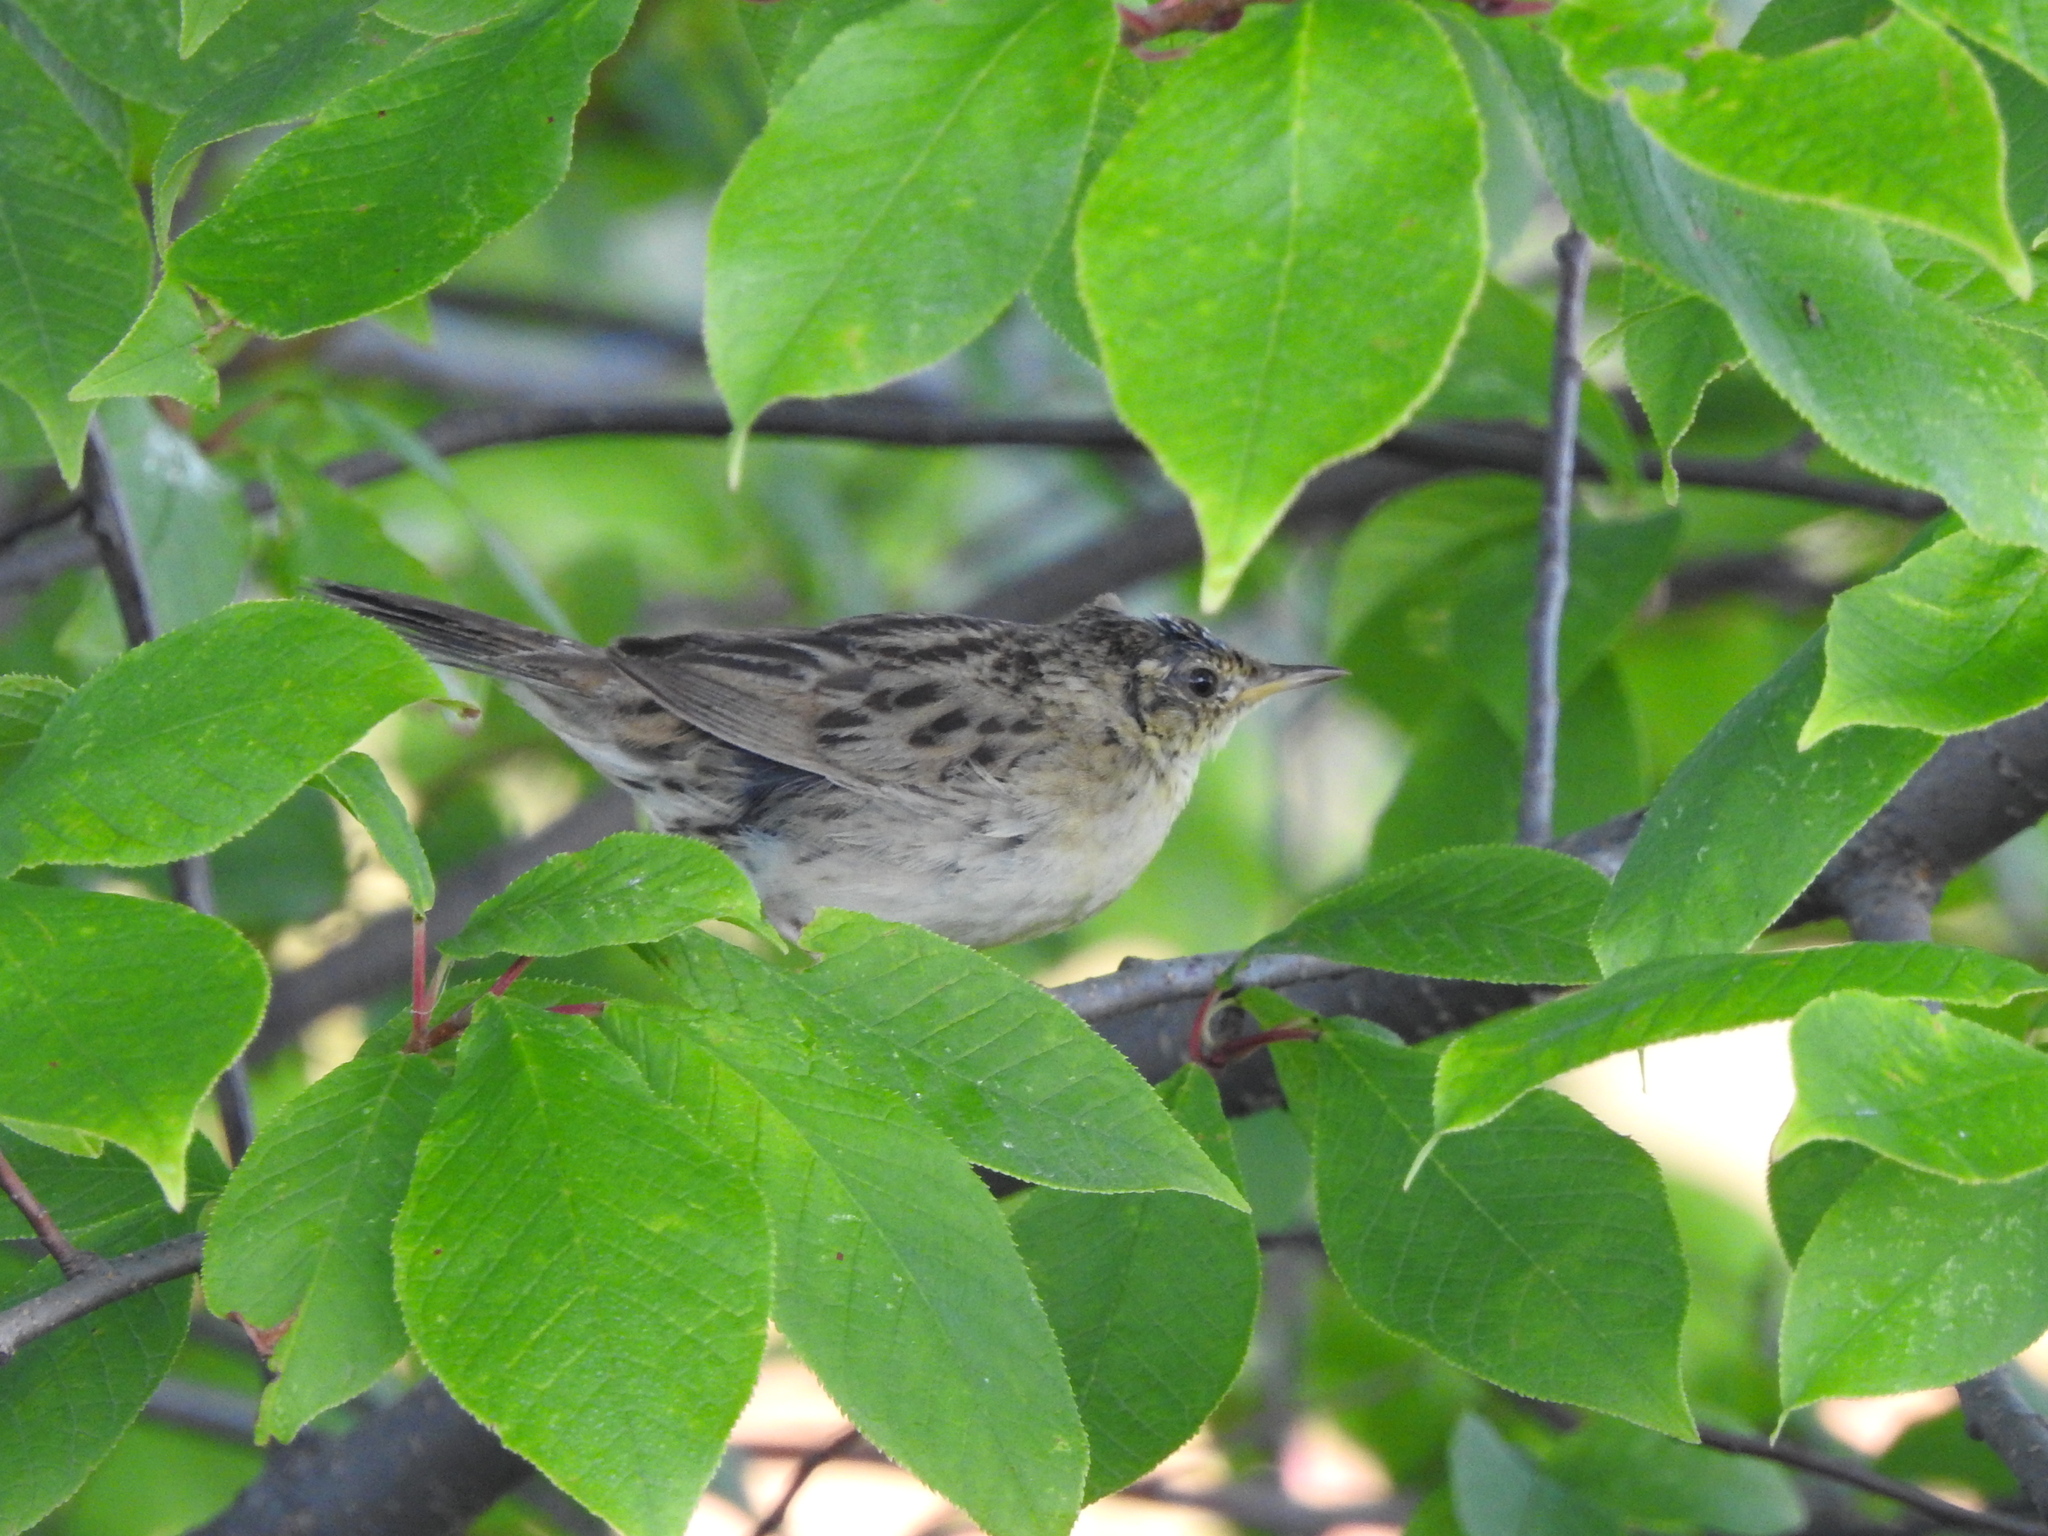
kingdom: Animalia
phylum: Chordata
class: Aves
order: Passeriformes
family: Locustellidae
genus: Locustella
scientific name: Locustella naevia
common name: Common grasshopper warbler
